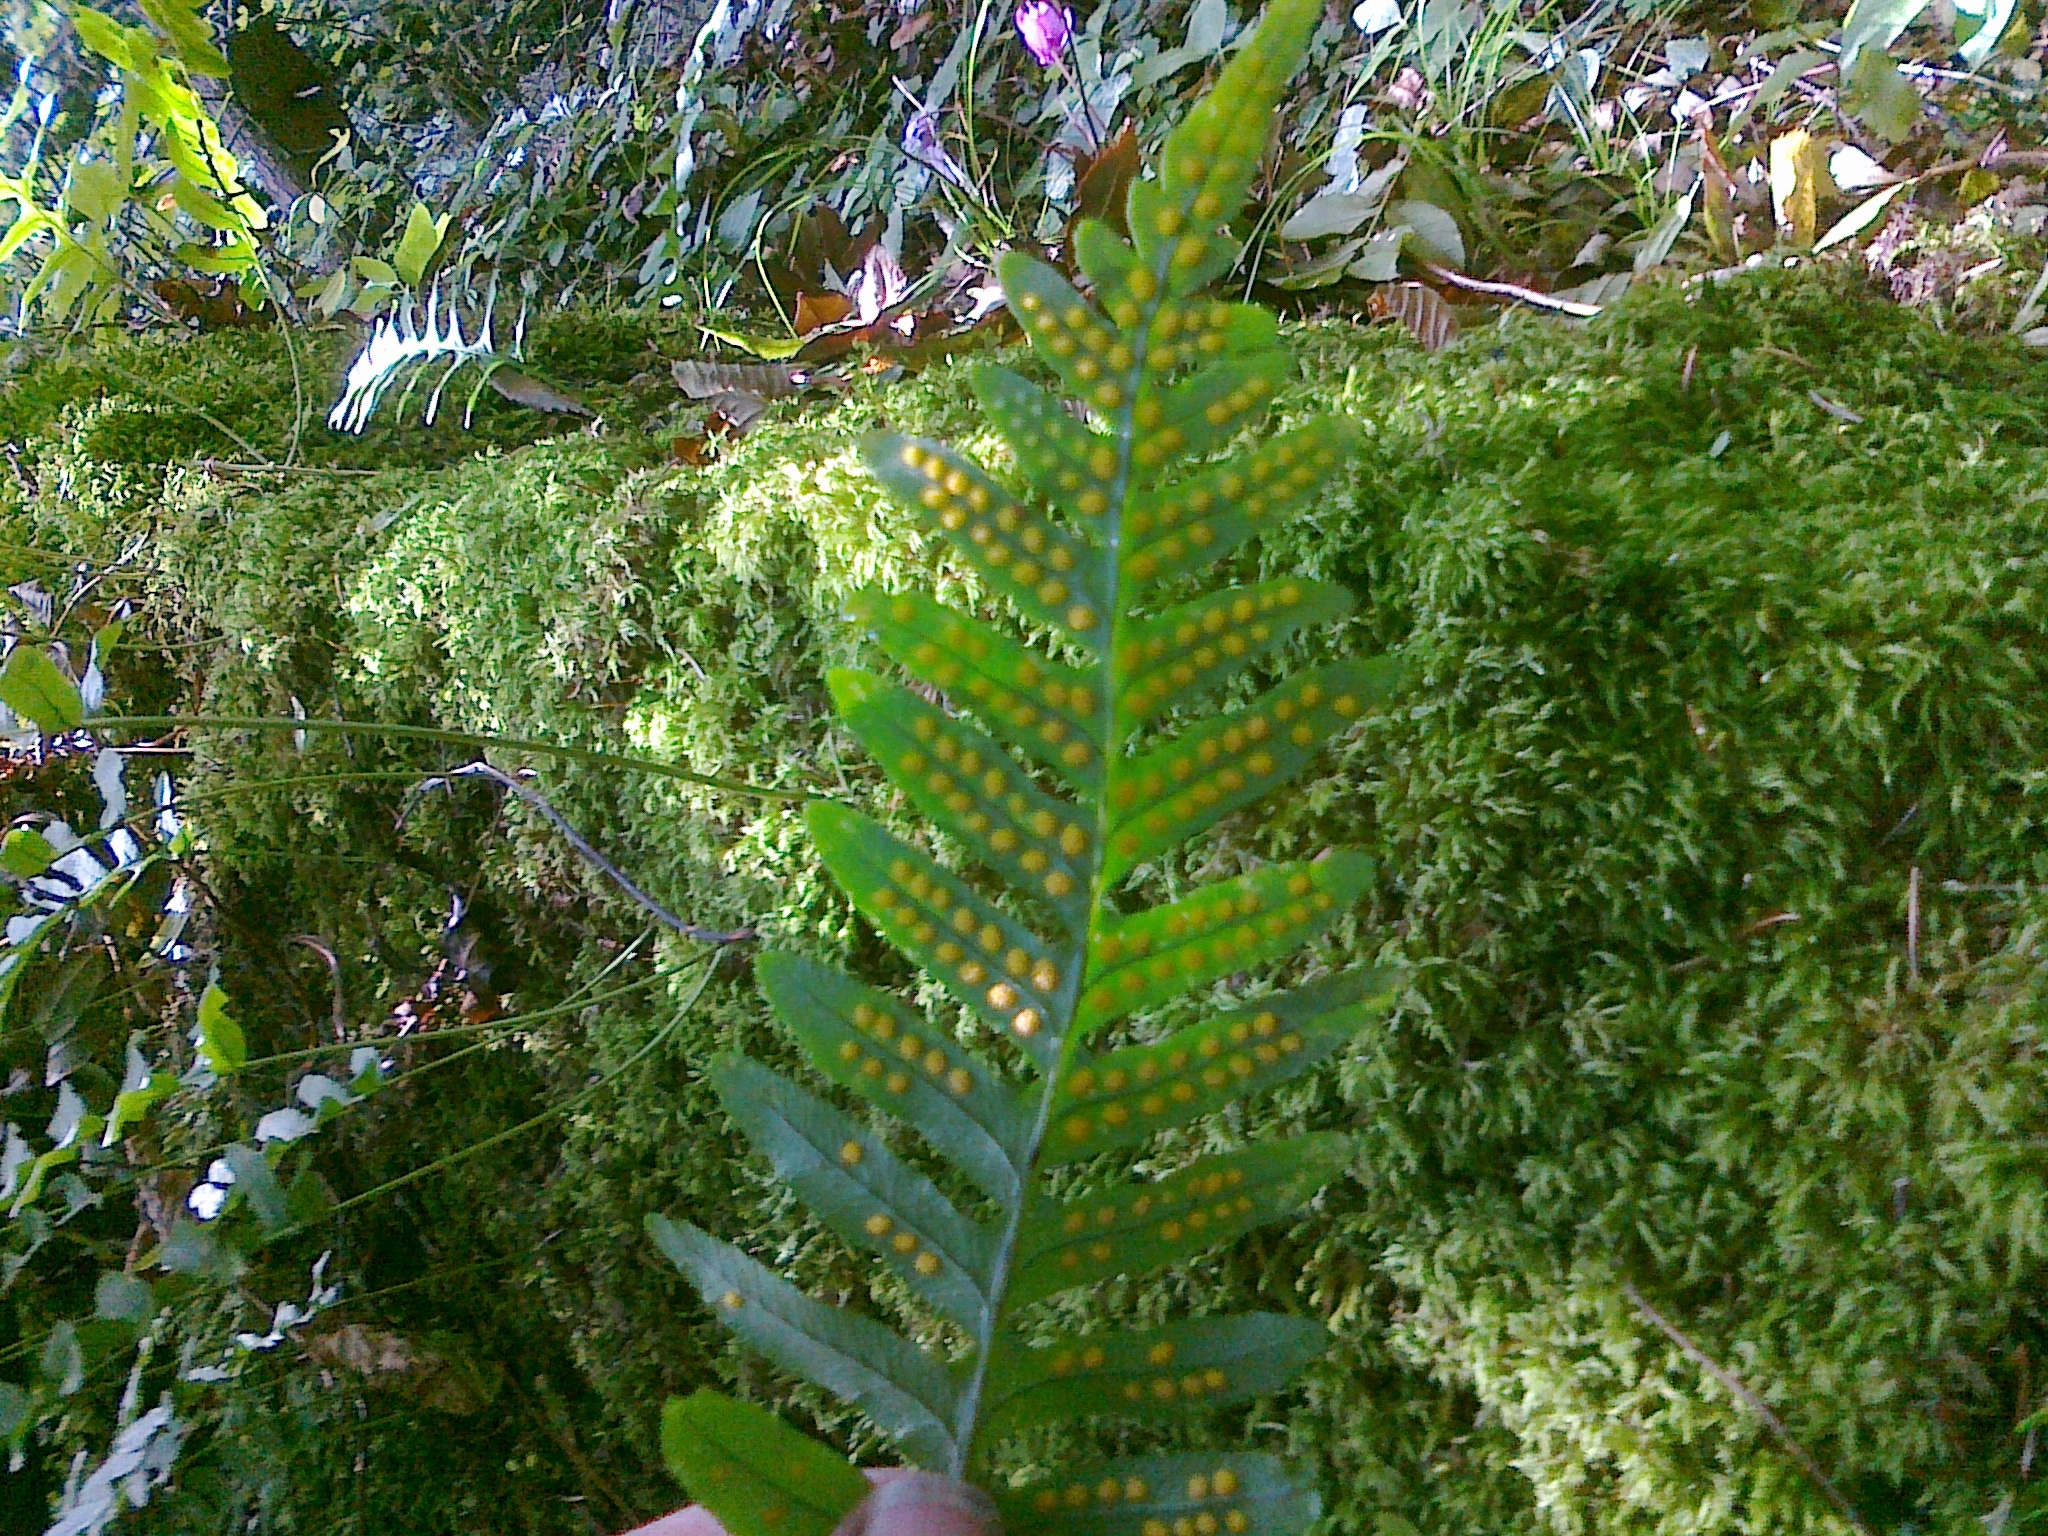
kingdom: Plantae
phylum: Tracheophyta
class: Polypodiopsida
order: Polypodiales
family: Polypodiaceae
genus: Polypodium
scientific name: Polypodium vulgare
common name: Common polypody
